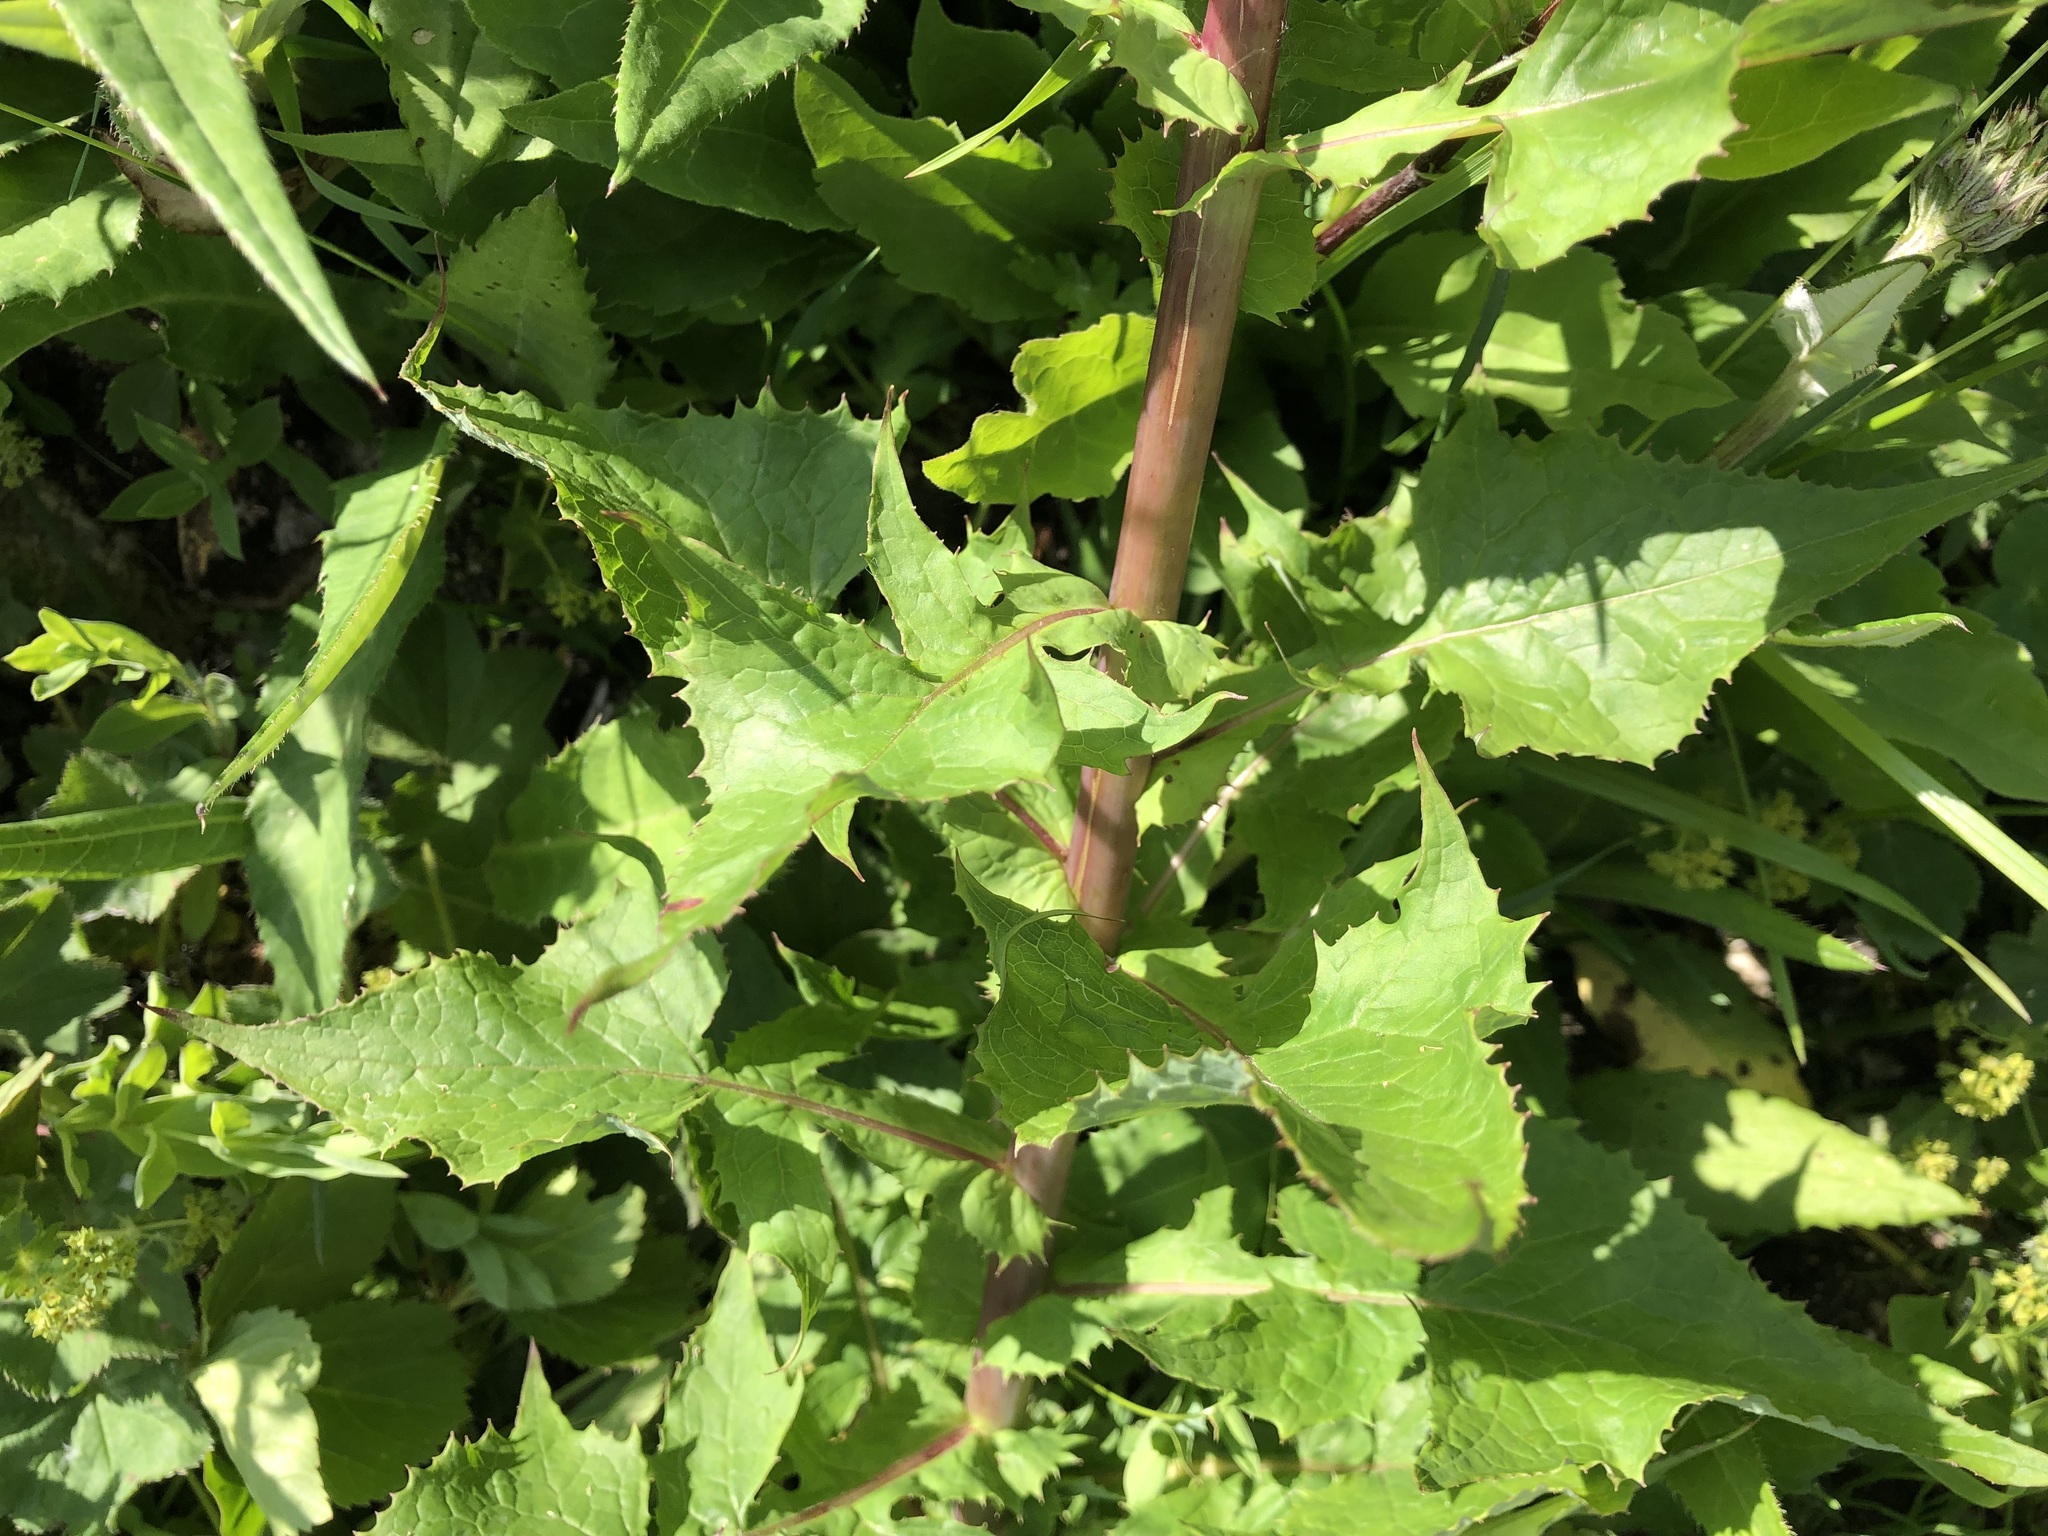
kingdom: Plantae
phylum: Tracheophyta
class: Magnoliopsida
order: Asterales
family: Asteraceae
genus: Cicerbita
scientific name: Cicerbita alpina
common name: Alpine blue-sow-thistle
